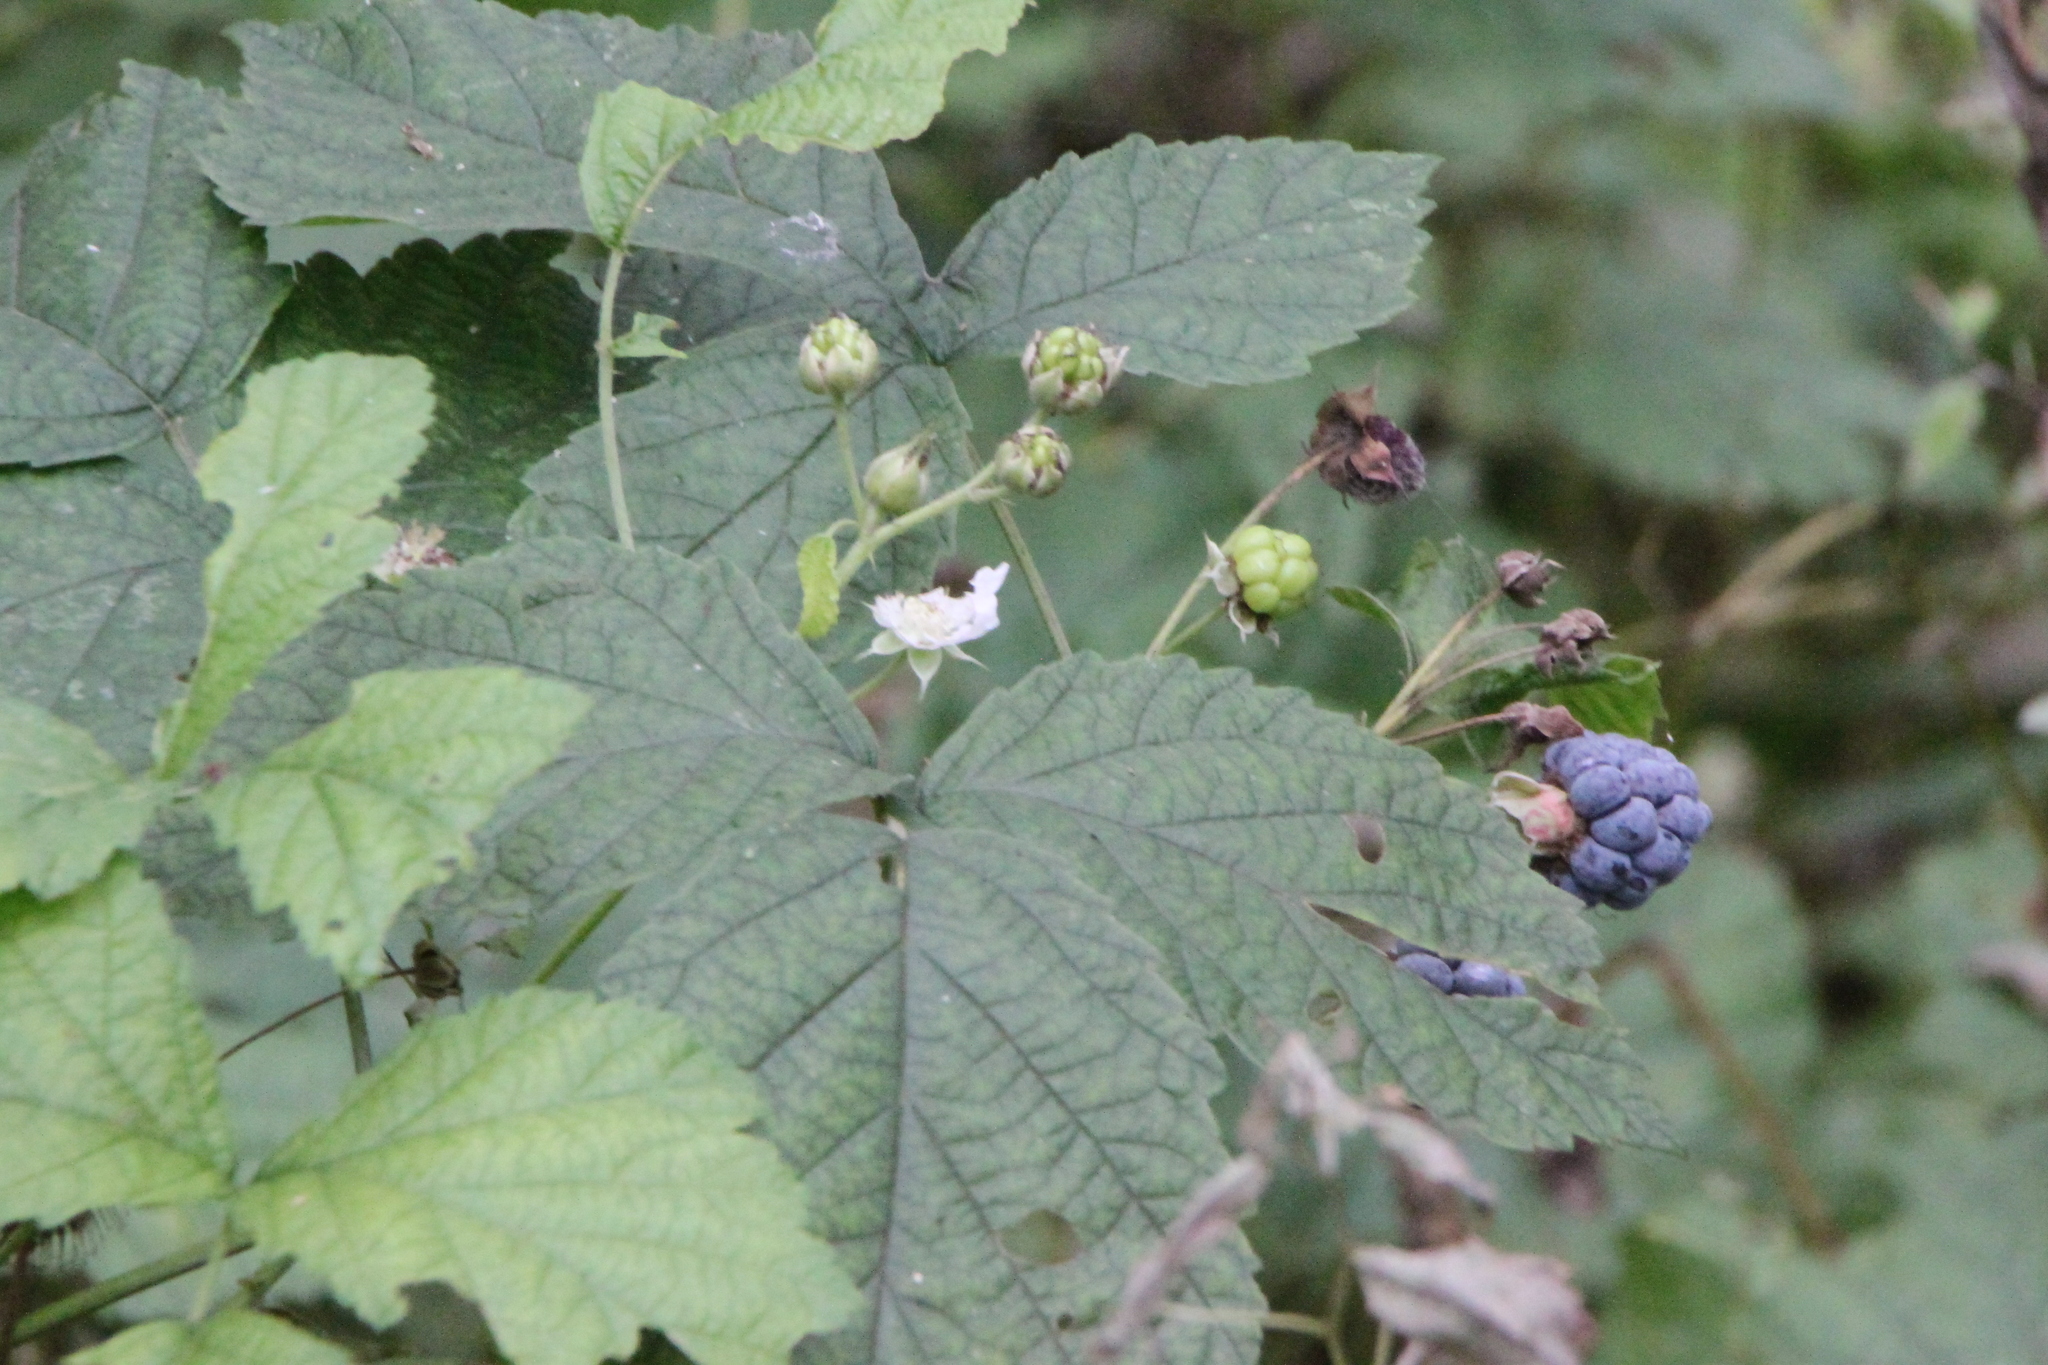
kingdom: Plantae
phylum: Tracheophyta
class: Magnoliopsida
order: Rosales
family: Rosaceae
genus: Rubus
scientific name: Rubus caesius
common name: Dewberry
